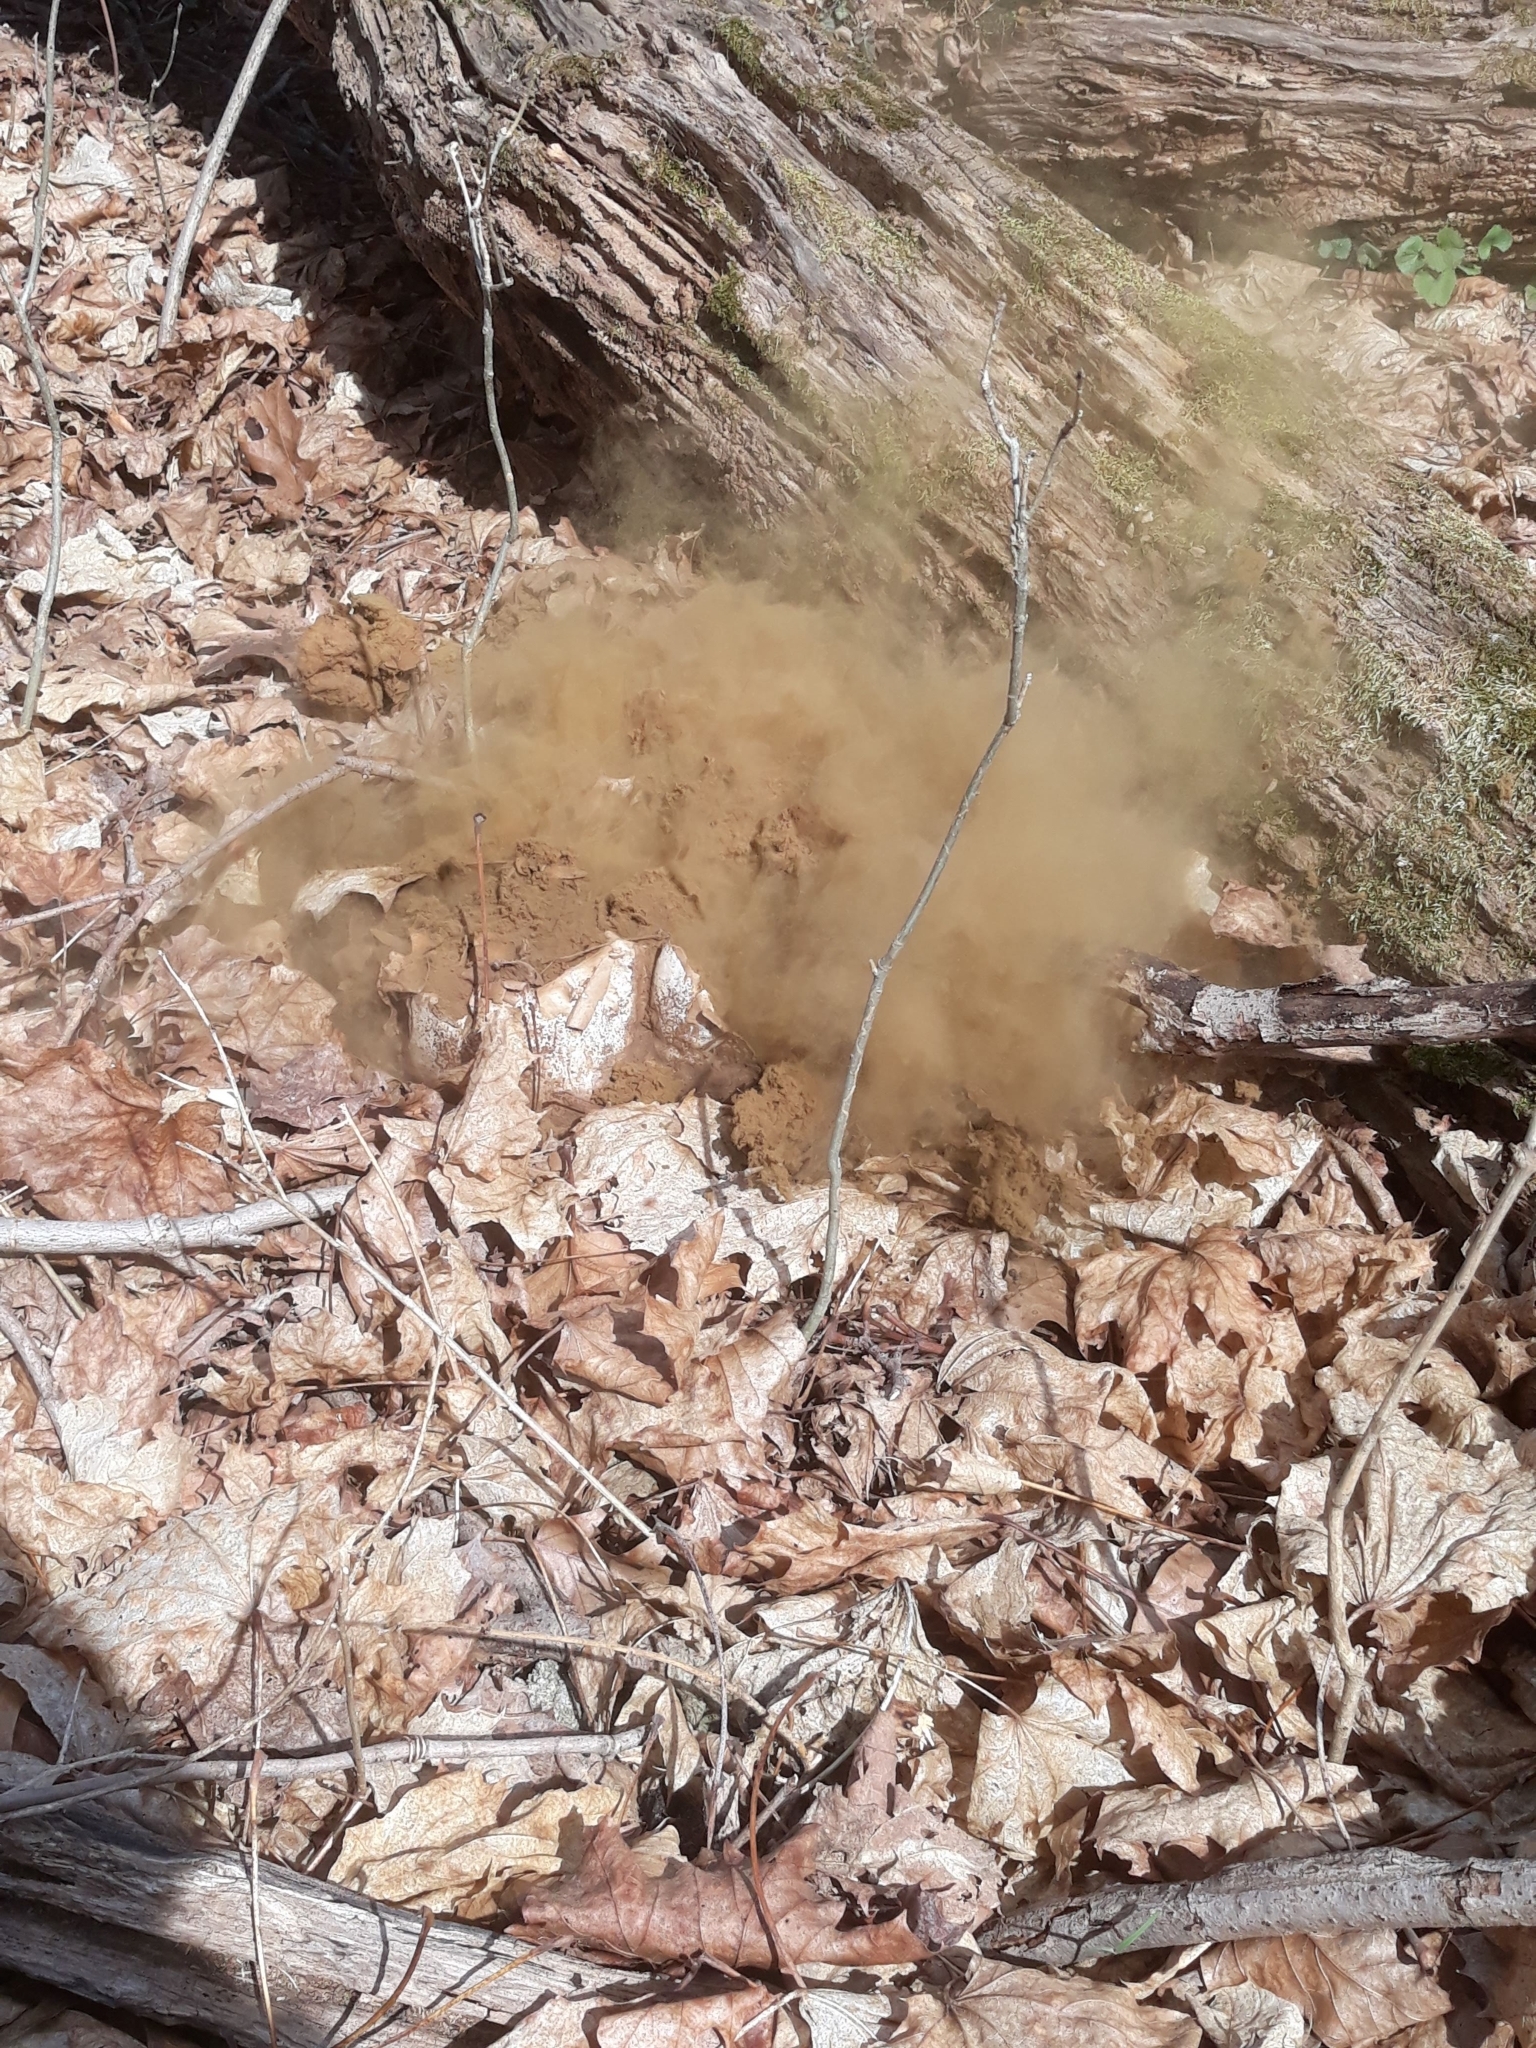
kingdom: Fungi
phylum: Basidiomycota
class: Agaricomycetes
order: Agaricales
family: Lycoperdaceae
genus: Calvatia
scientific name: Calvatia gigantea
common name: Giant puffball
